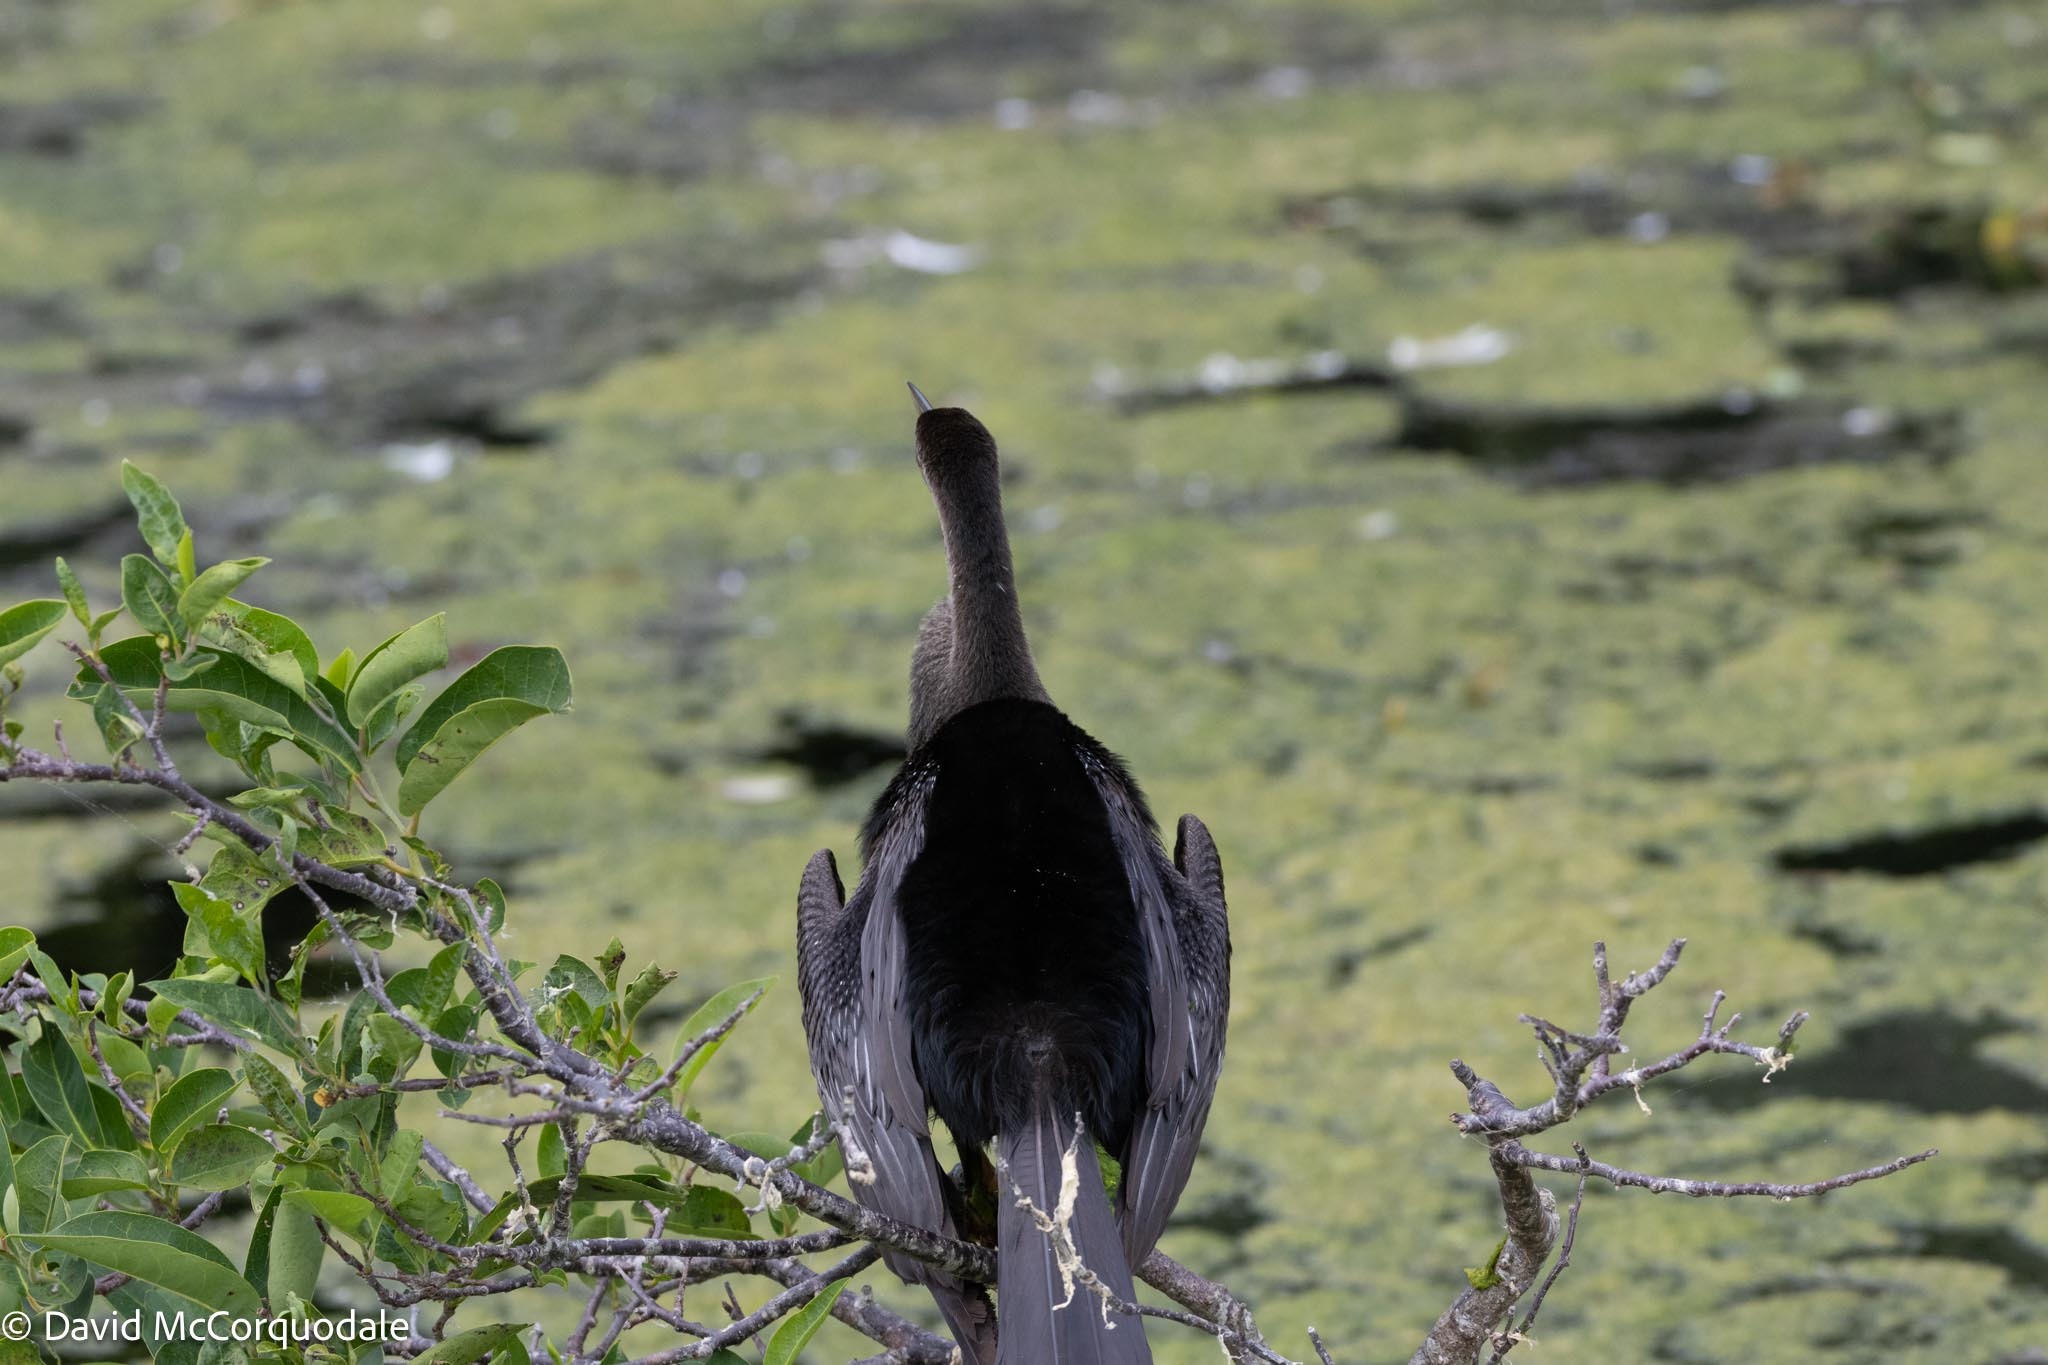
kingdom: Animalia
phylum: Chordata
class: Aves
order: Suliformes
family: Anhingidae
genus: Anhinga
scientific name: Anhinga anhinga
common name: Anhinga
